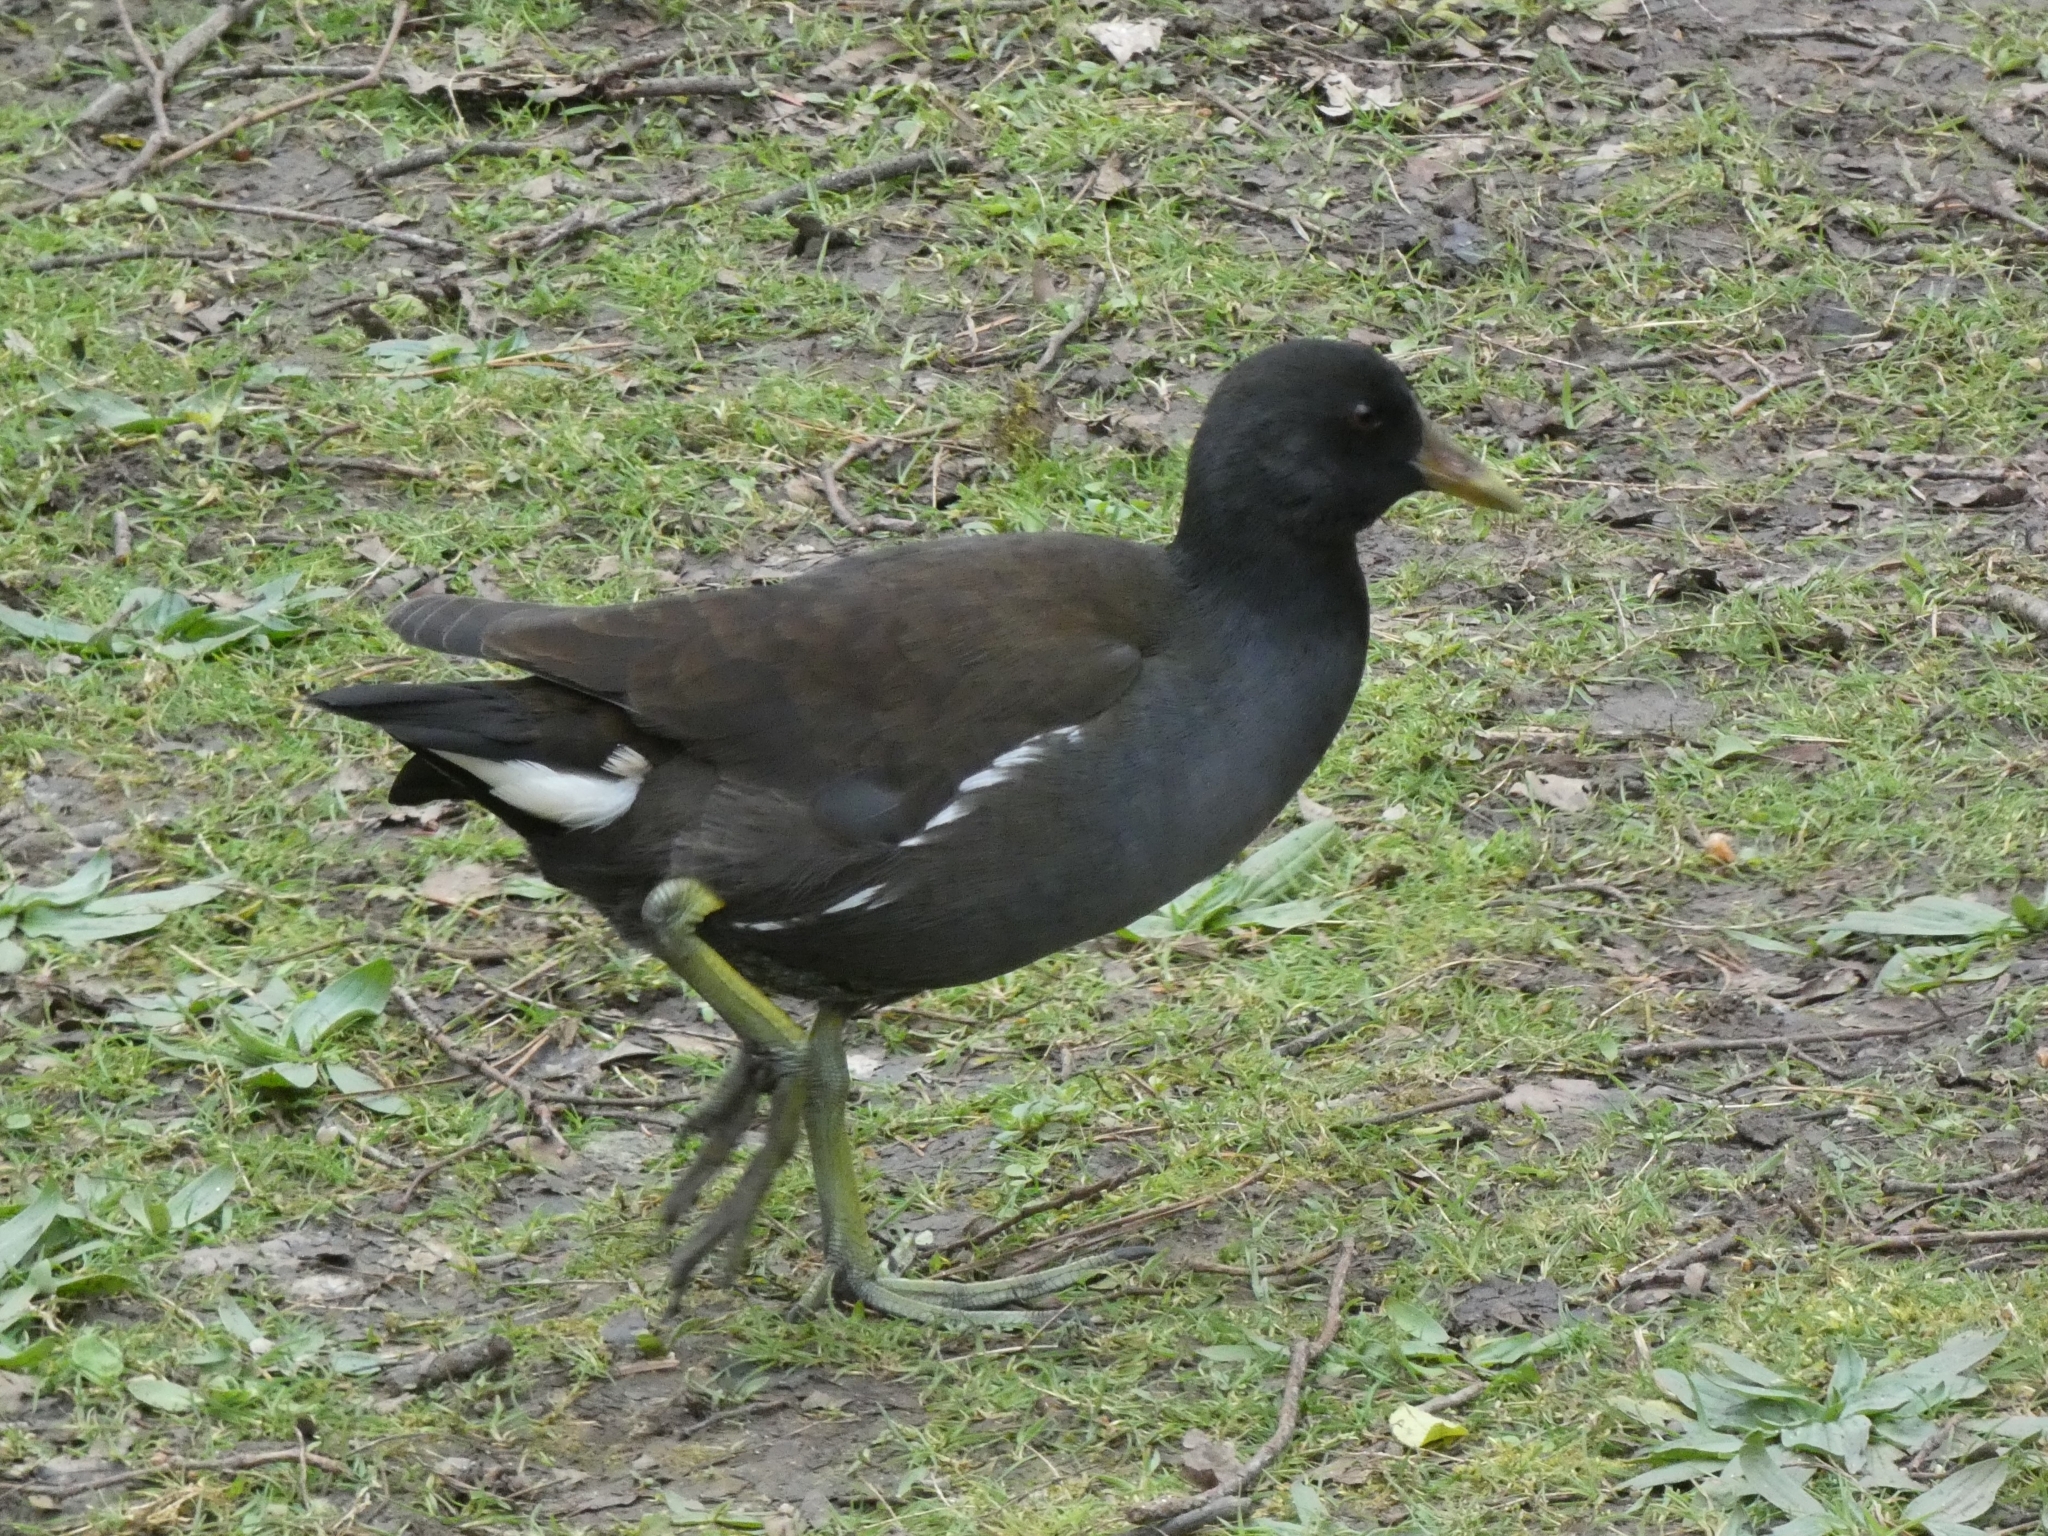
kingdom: Animalia
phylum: Chordata
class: Aves
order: Gruiformes
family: Rallidae
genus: Gallinula
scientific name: Gallinula chloropus
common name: Common moorhen
